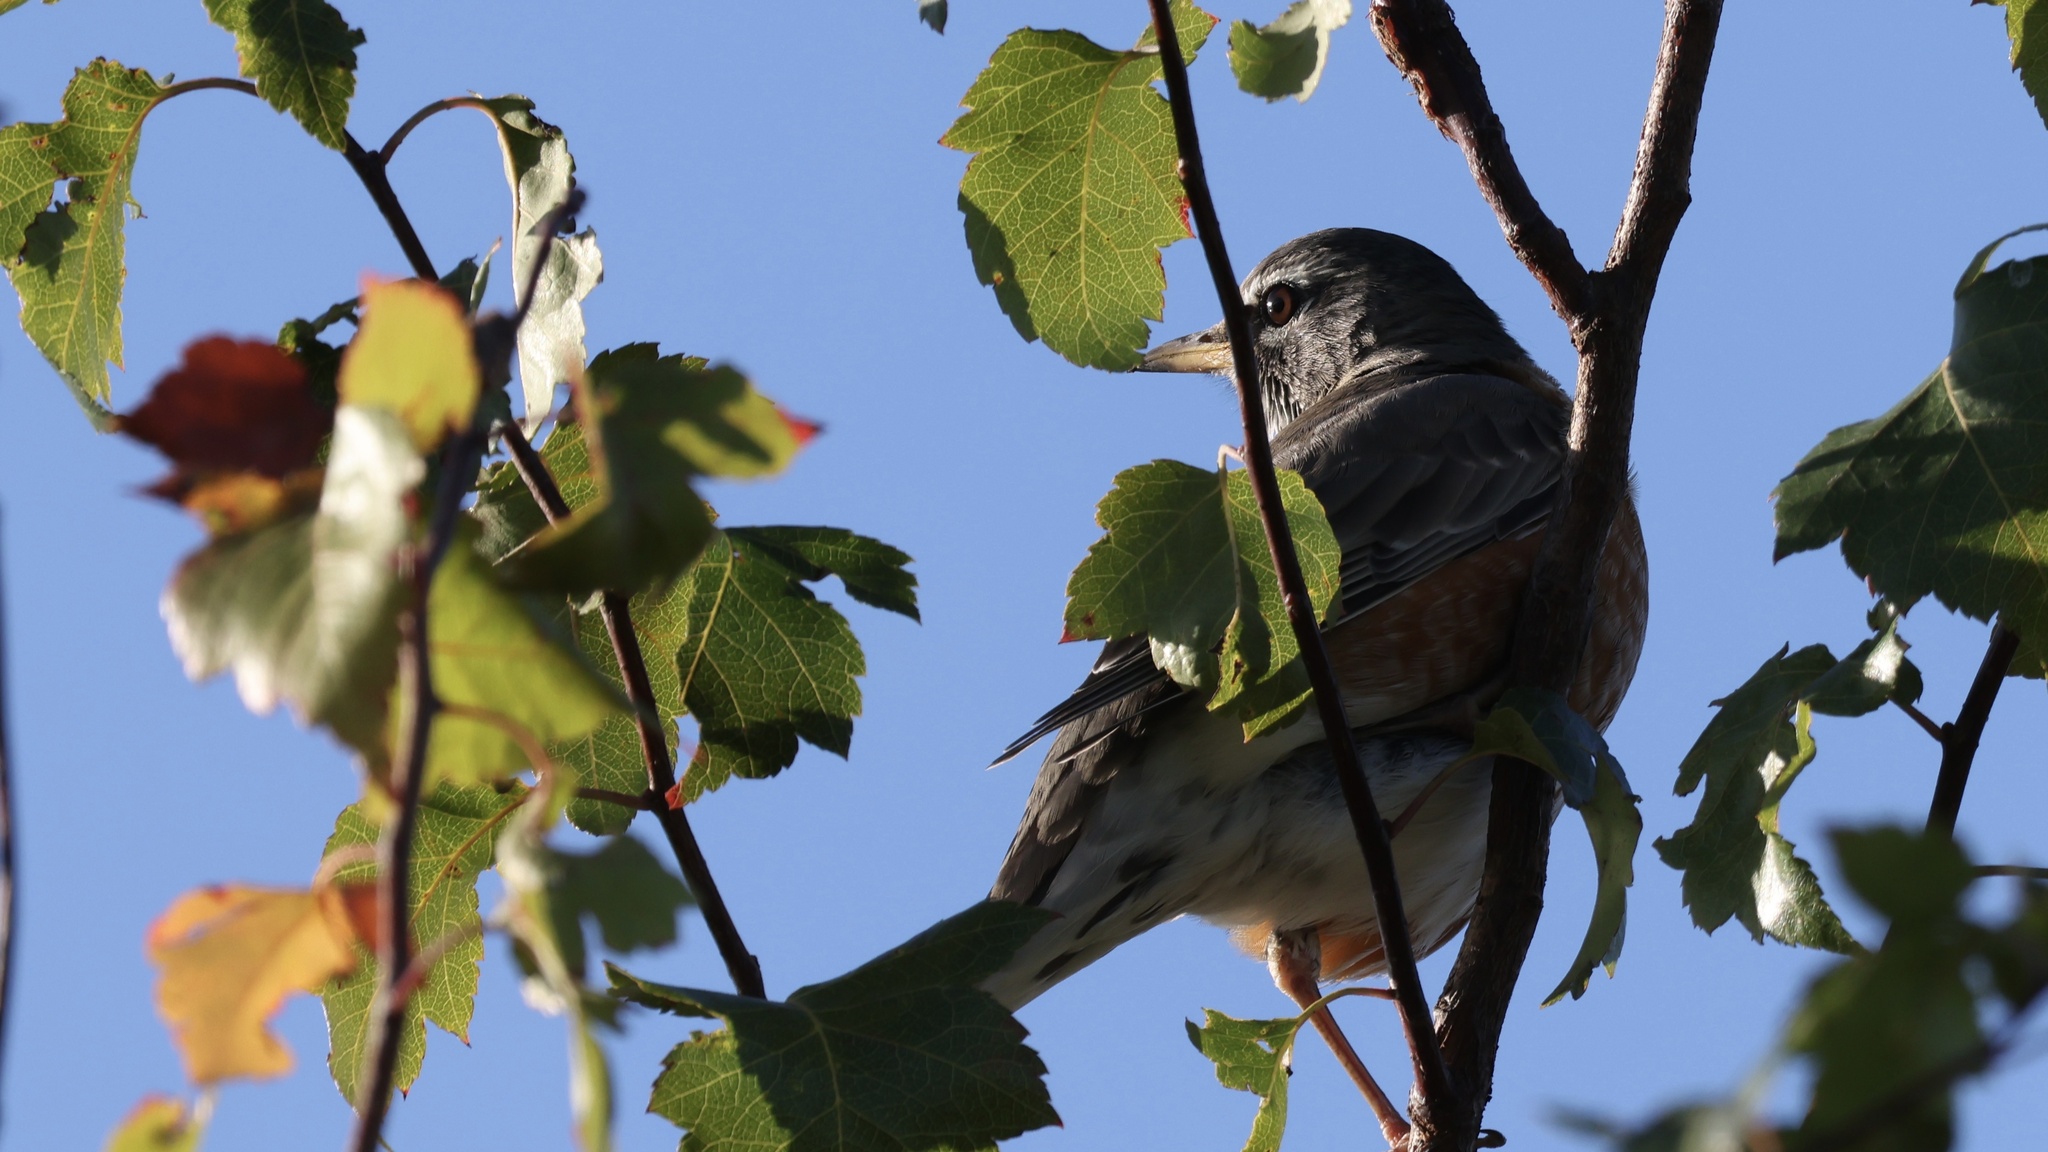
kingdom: Animalia
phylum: Chordata
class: Aves
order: Passeriformes
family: Turdidae
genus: Turdus
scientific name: Turdus migratorius
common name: American robin
